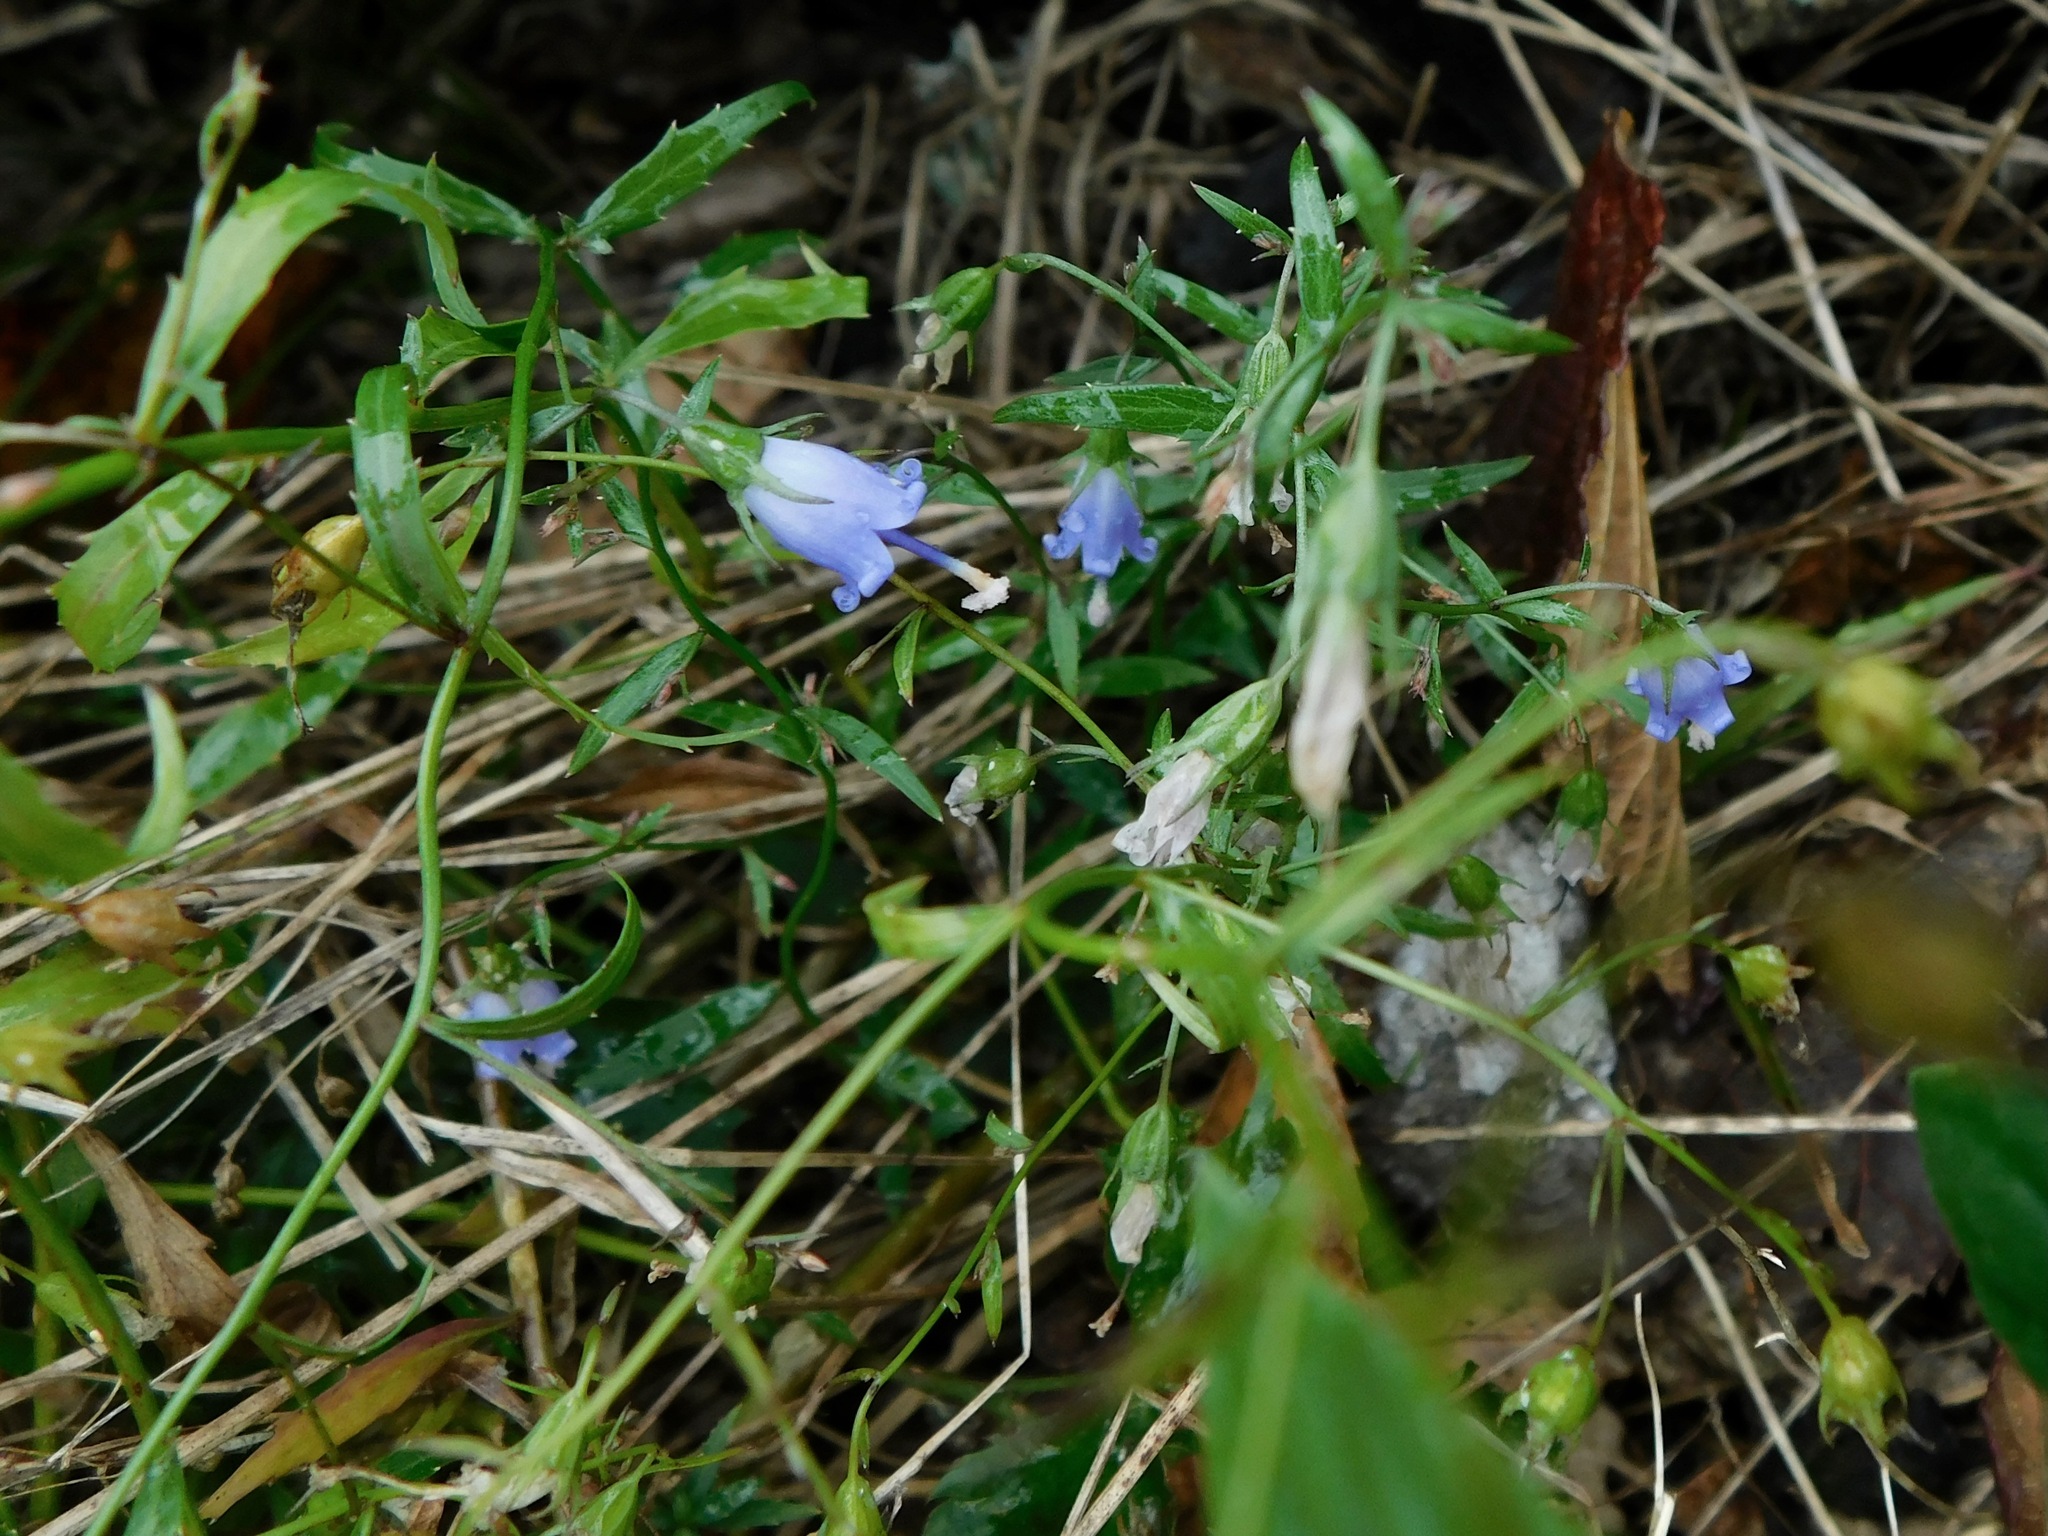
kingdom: Plantae
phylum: Tracheophyta
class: Magnoliopsida
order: Asterales
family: Campanulaceae
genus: Campanula
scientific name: Campanula divaricata
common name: Appalachian bellflower
